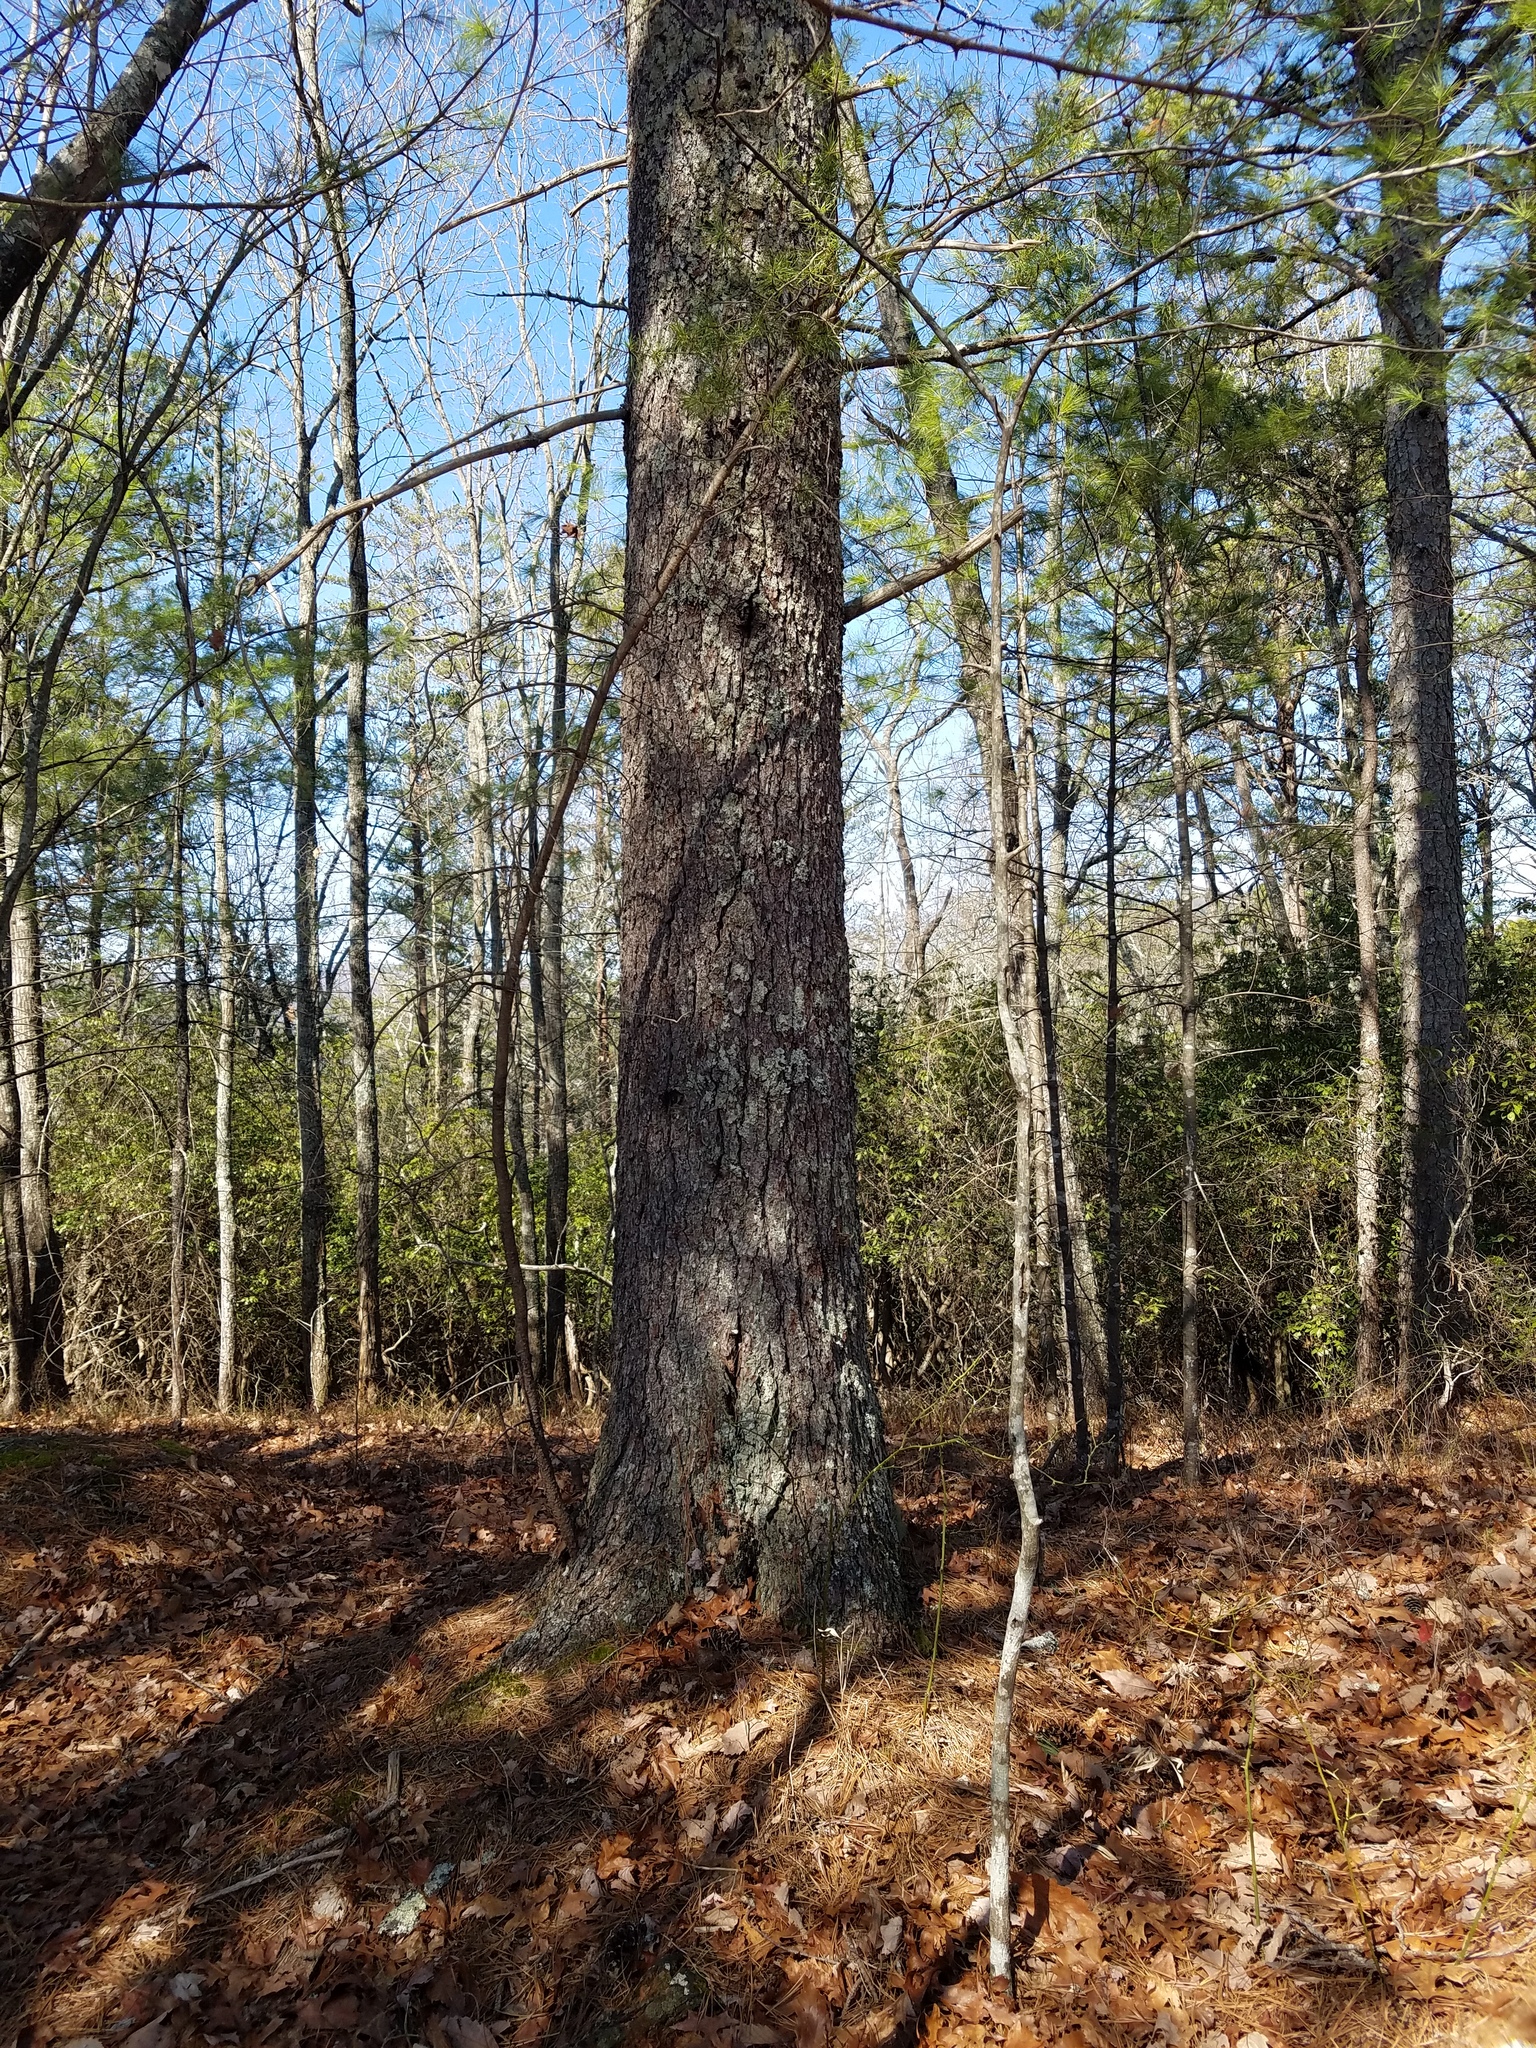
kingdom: Plantae
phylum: Tracheophyta
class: Pinopsida
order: Pinales
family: Pinaceae
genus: Pinus
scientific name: Pinus strobus
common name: Weymouth pine
